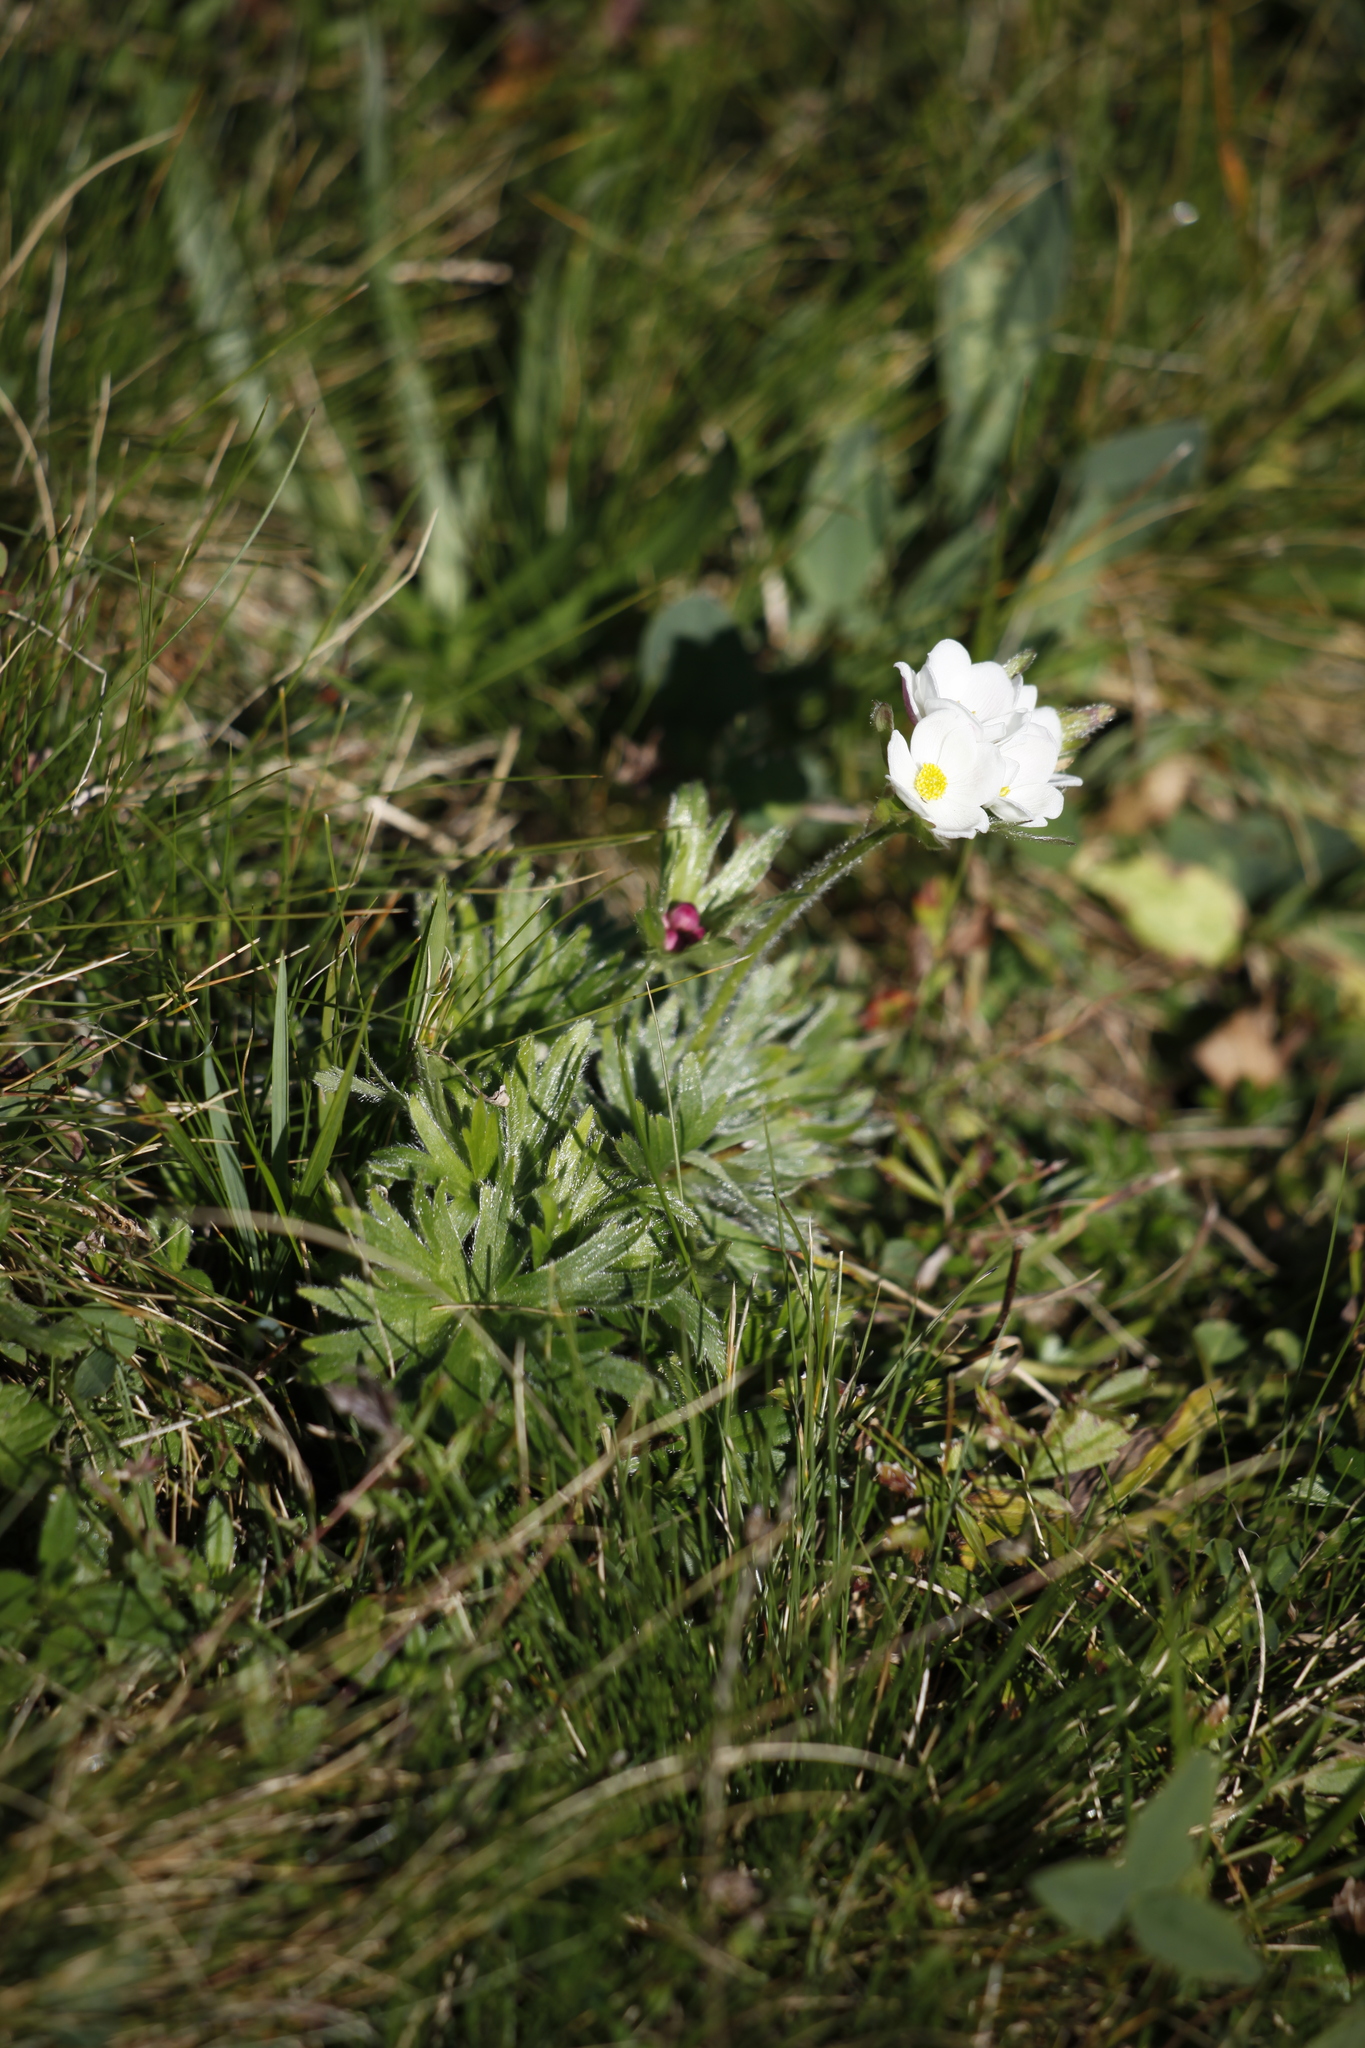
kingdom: Plantae
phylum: Tracheophyta
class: Magnoliopsida
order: Ranunculales
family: Ranunculaceae
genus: Anemonastrum
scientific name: Anemonastrum narcissiflorum
